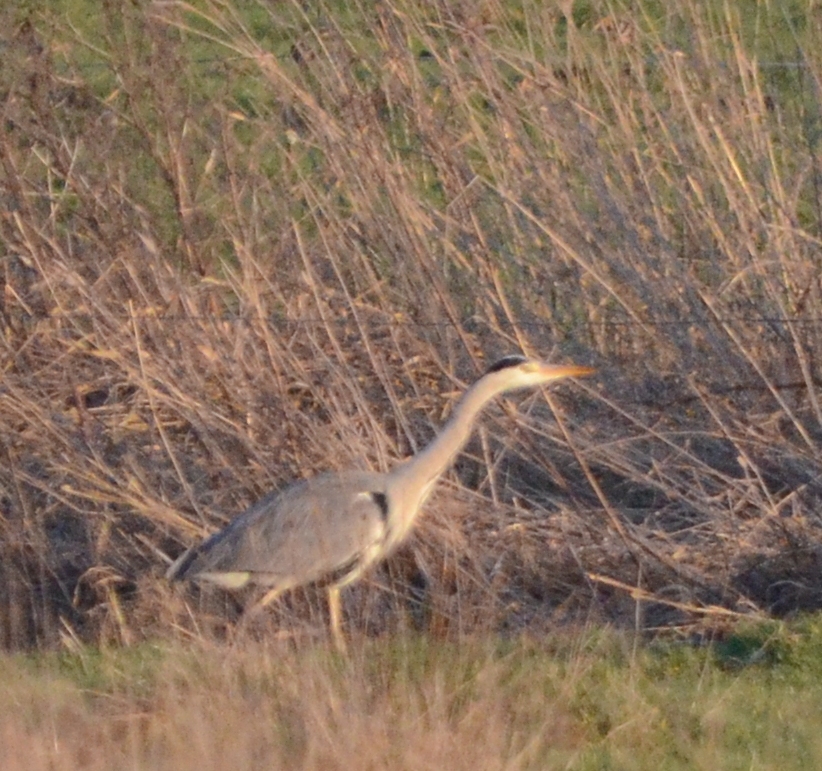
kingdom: Animalia
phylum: Chordata
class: Aves
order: Pelecaniformes
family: Ardeidae
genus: Ardea
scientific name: Ardea cinerea
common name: Grey heron
